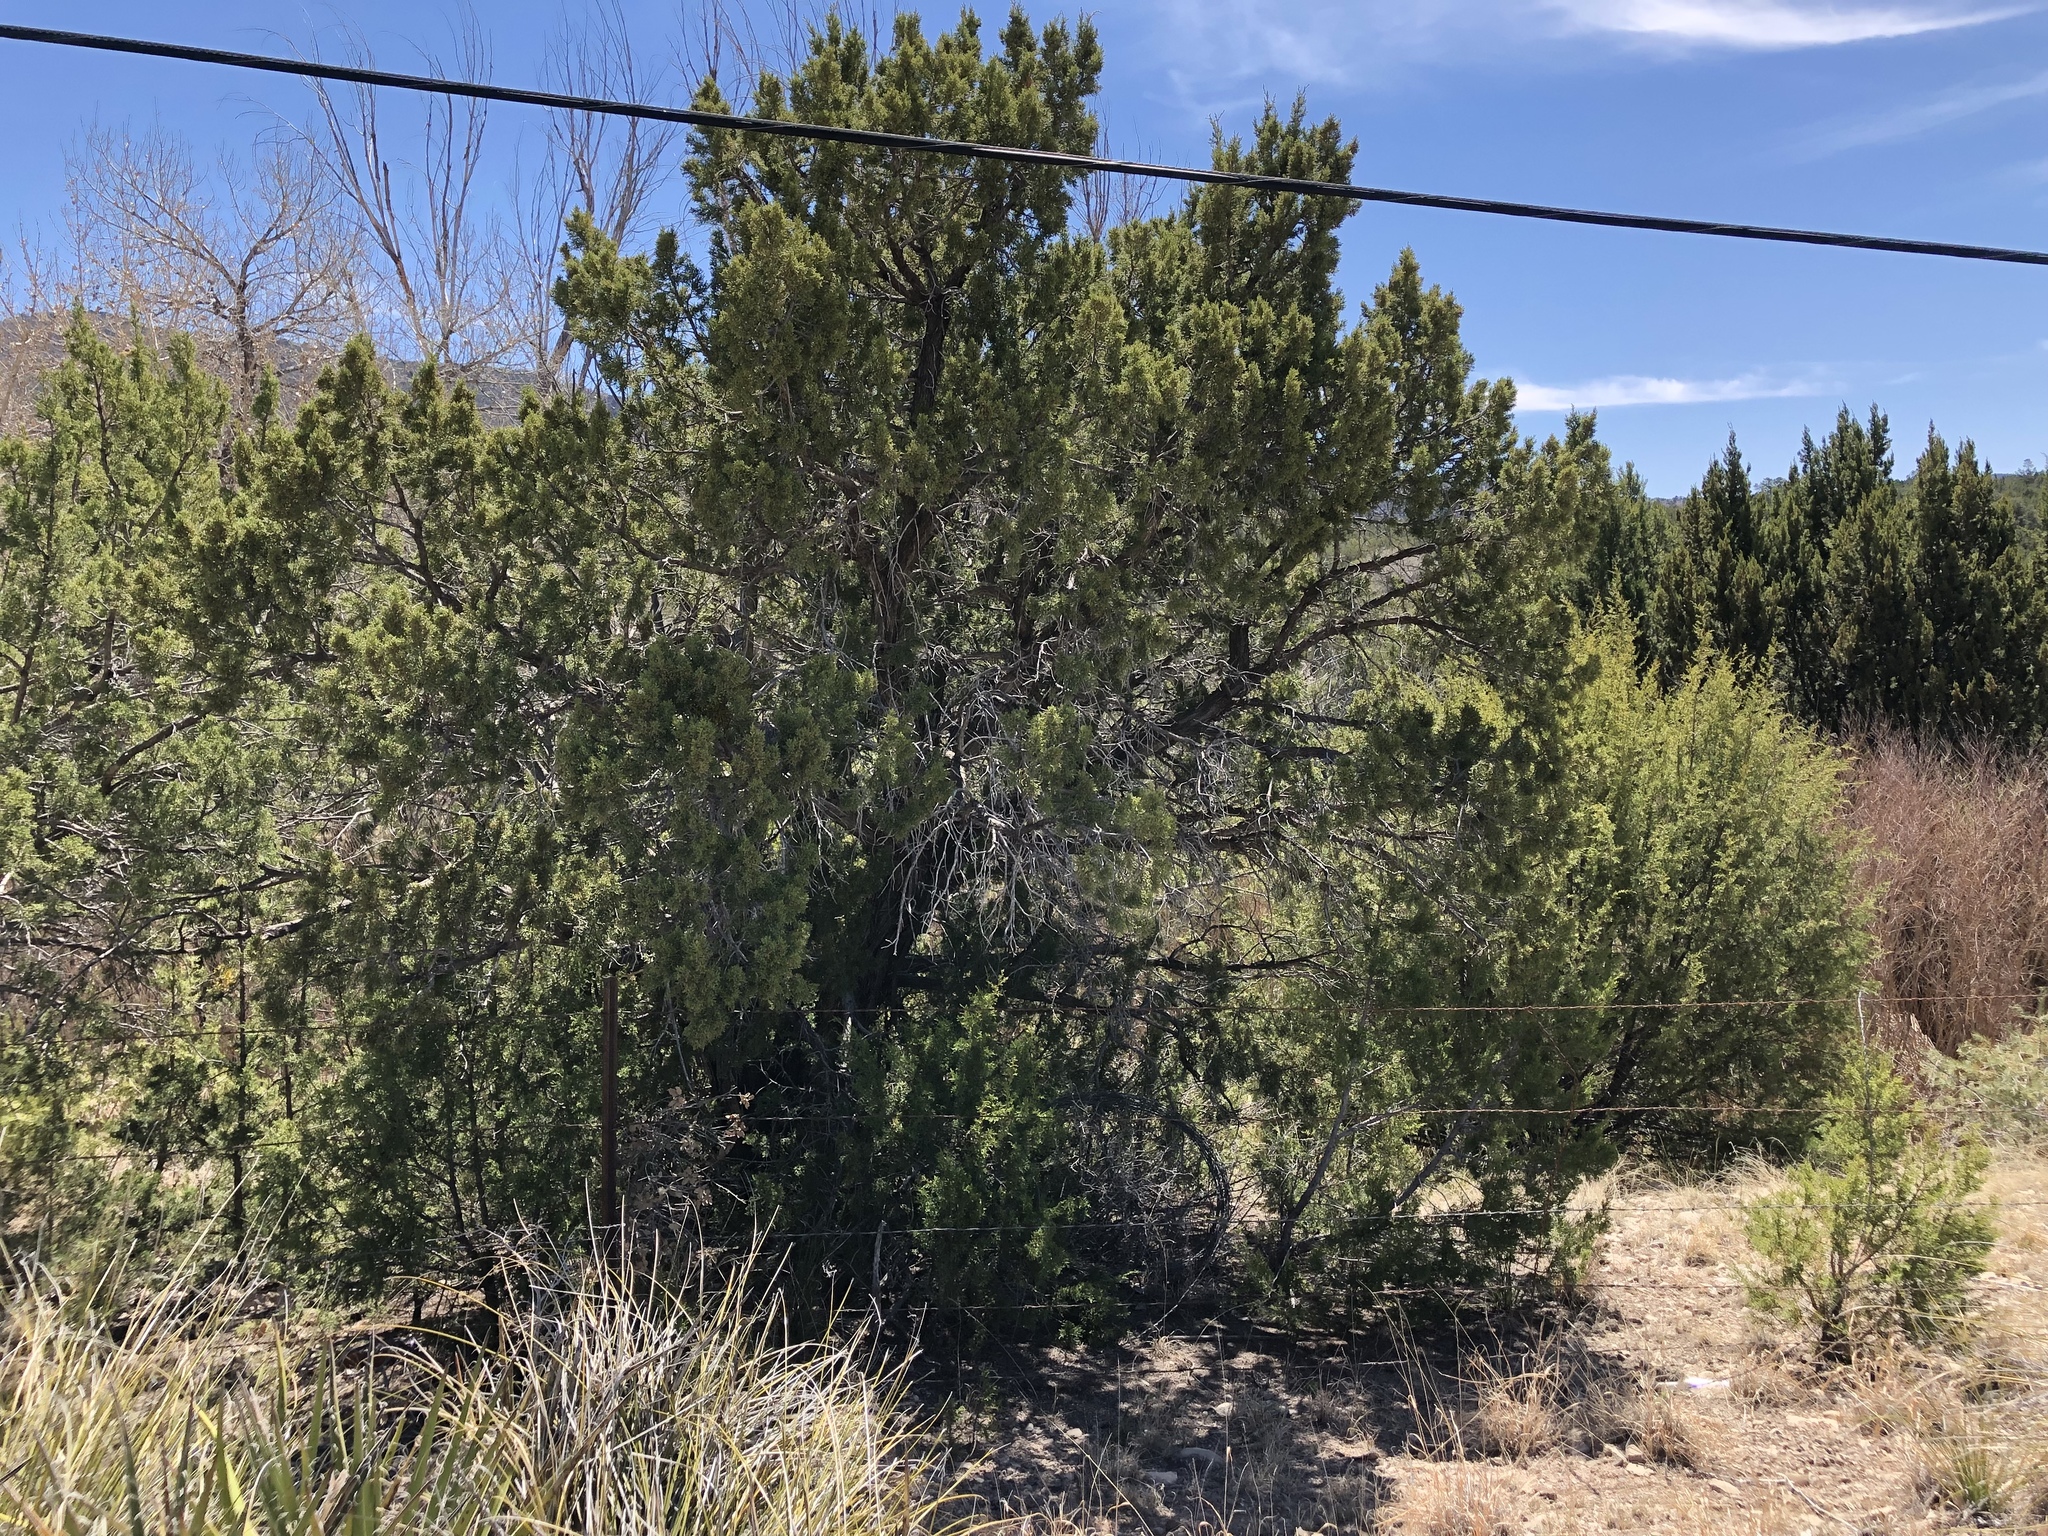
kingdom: Plantae
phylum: Tracheophyta
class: Pinopsida
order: Pinales
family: Cupressaceae
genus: Juniperus
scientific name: Juniperus monosperma
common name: One-seed juniper
